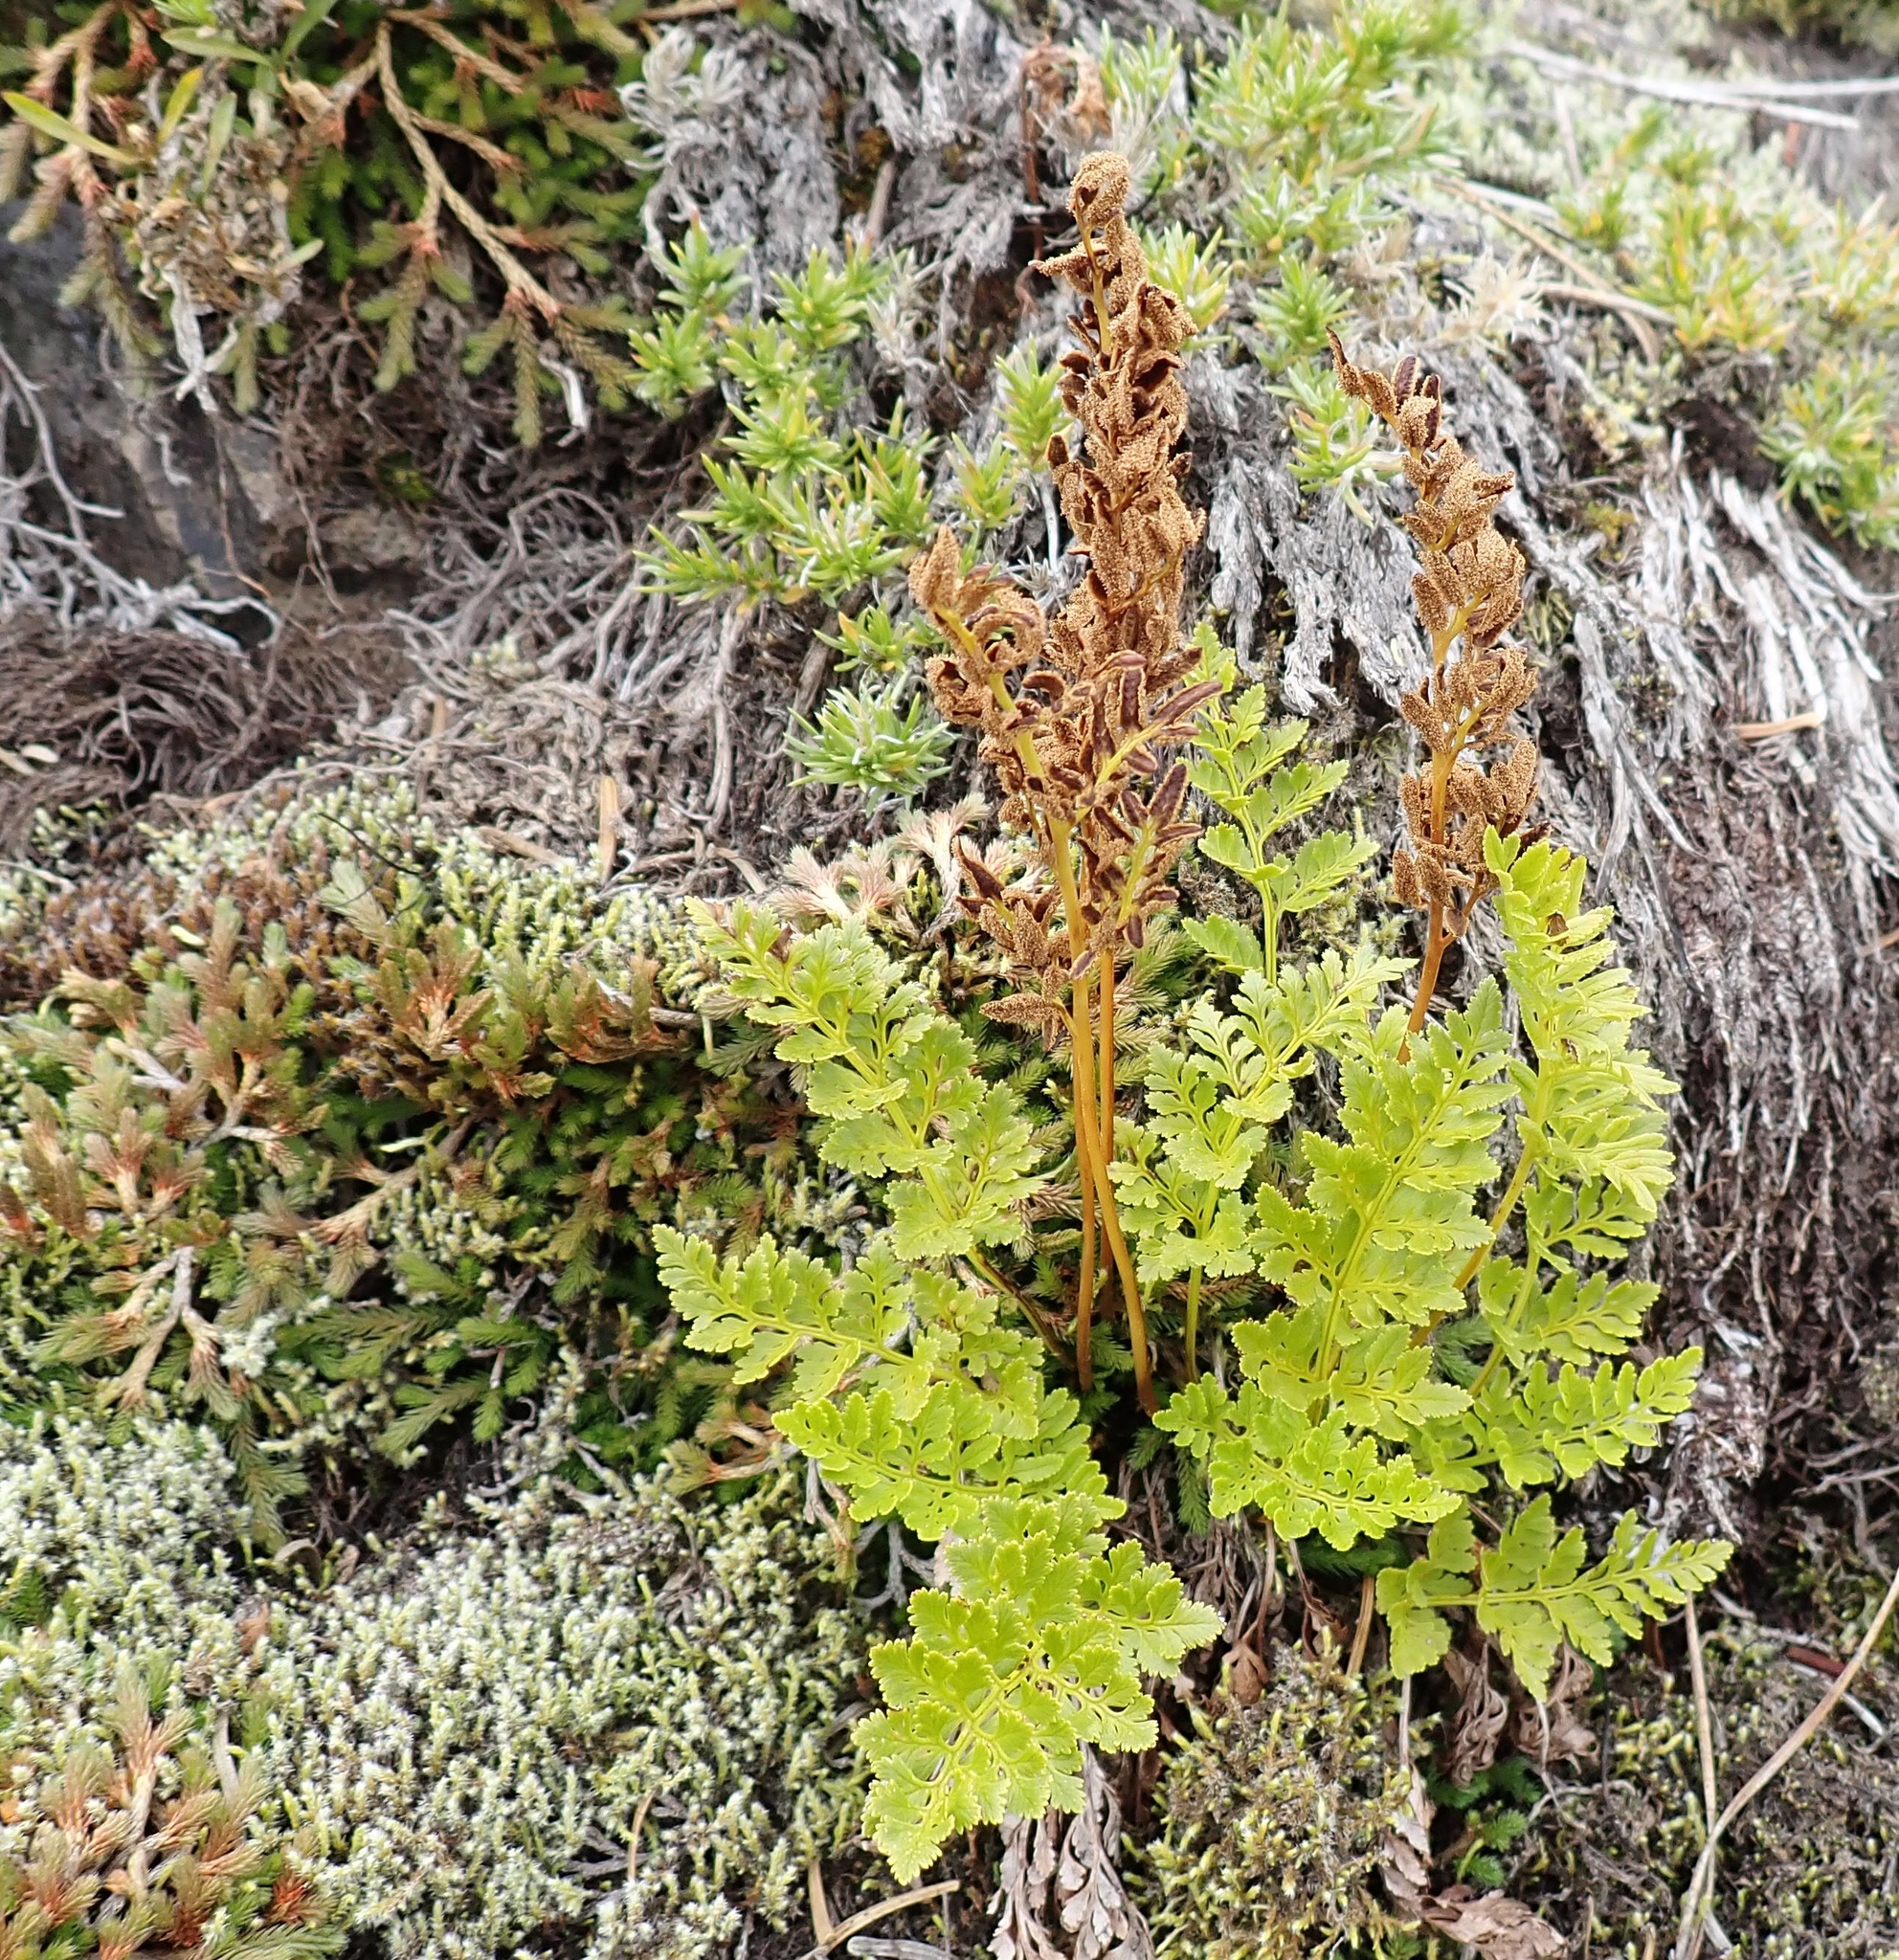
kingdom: Plantae
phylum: Tracheophyta
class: Polypodiopsida
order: Polypodiales
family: Pteridaceae
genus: Cryptogramma
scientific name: Cryptogramma acrostichoides
